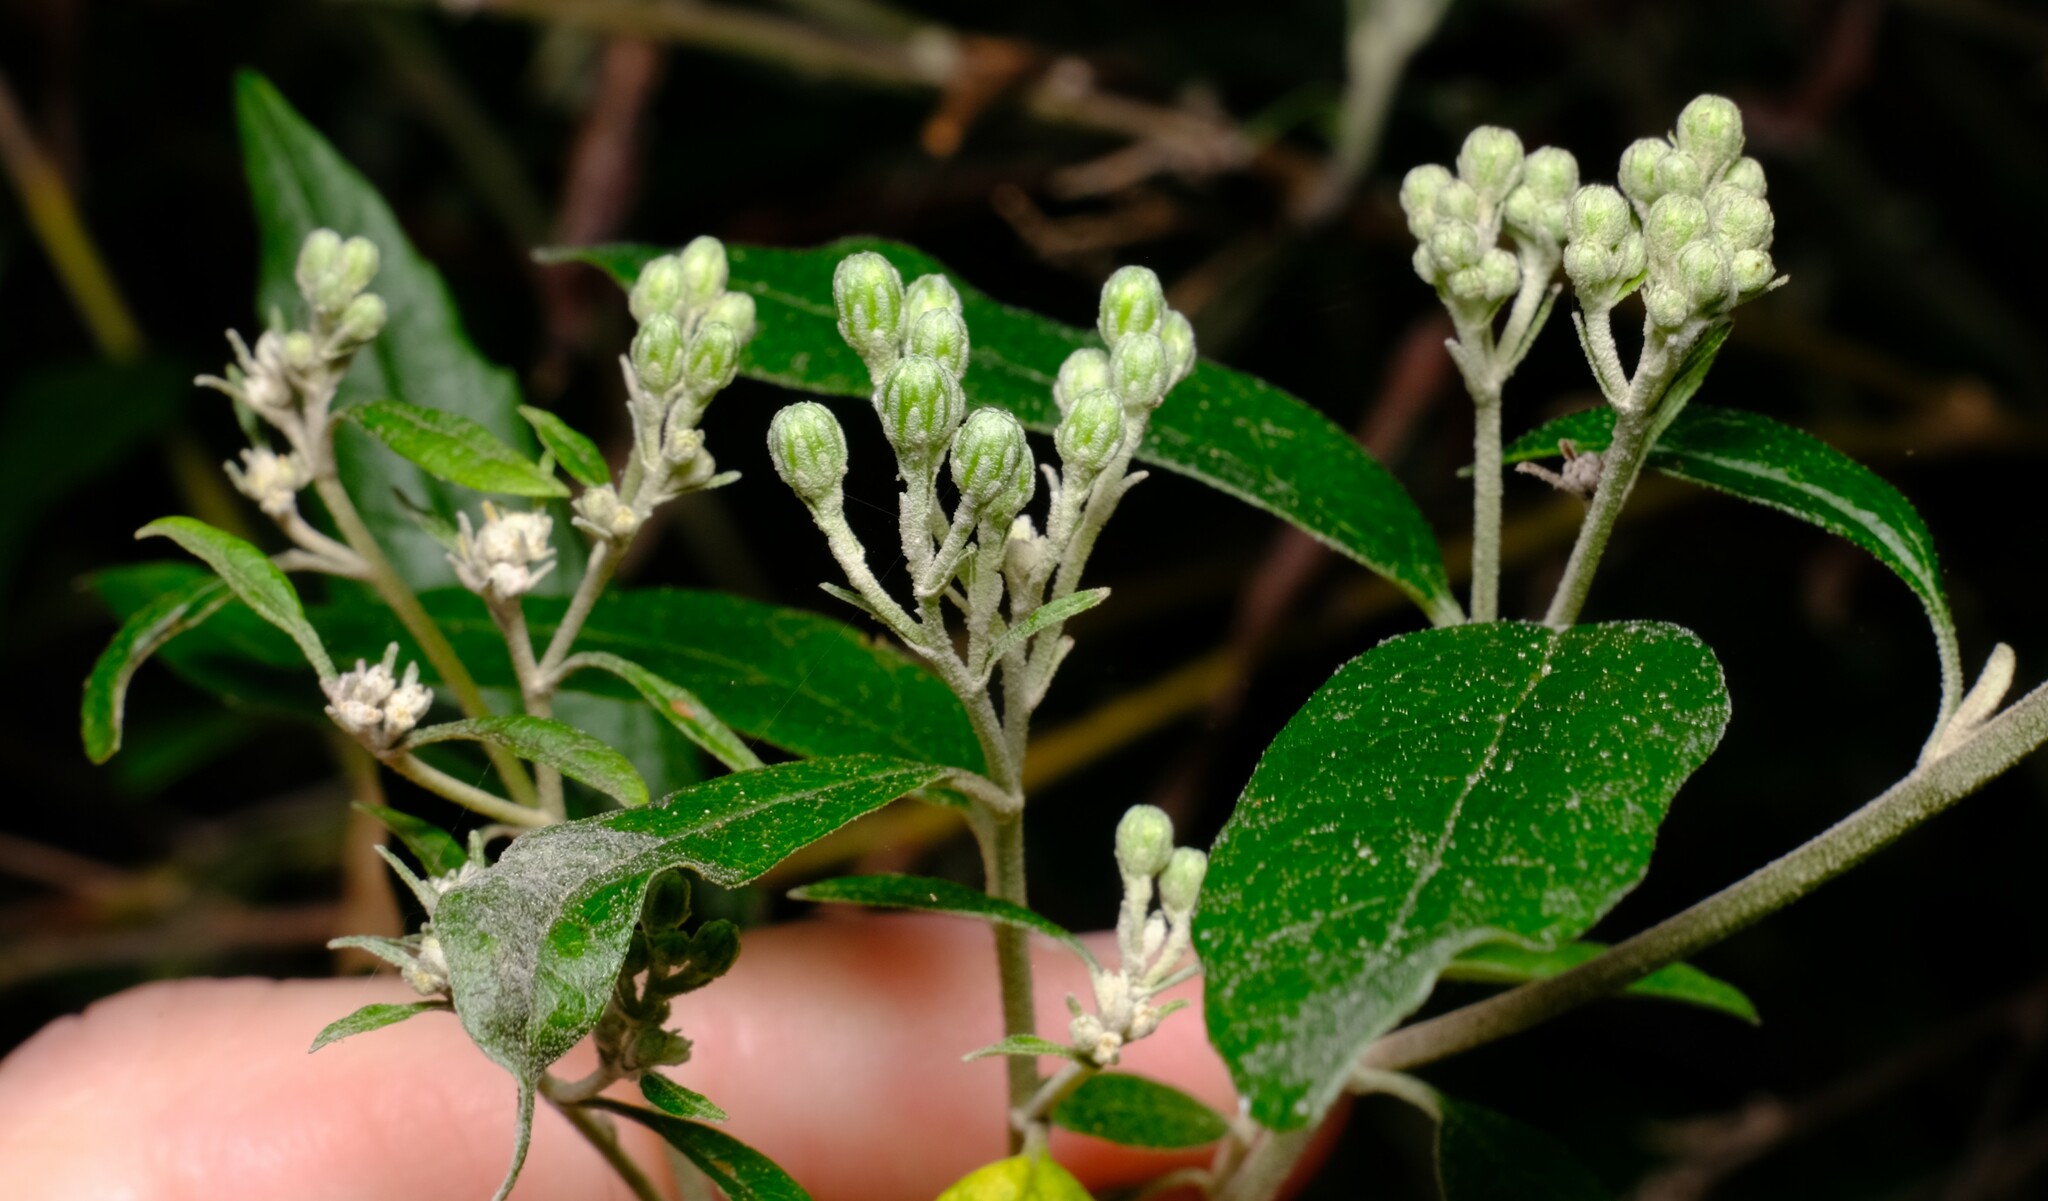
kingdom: Plantae
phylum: Tracheophyta
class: Magnoliopsida
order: Asterales
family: Asteraceae
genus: Olearia
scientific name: Olearia lirata
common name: Dusty daisybush
